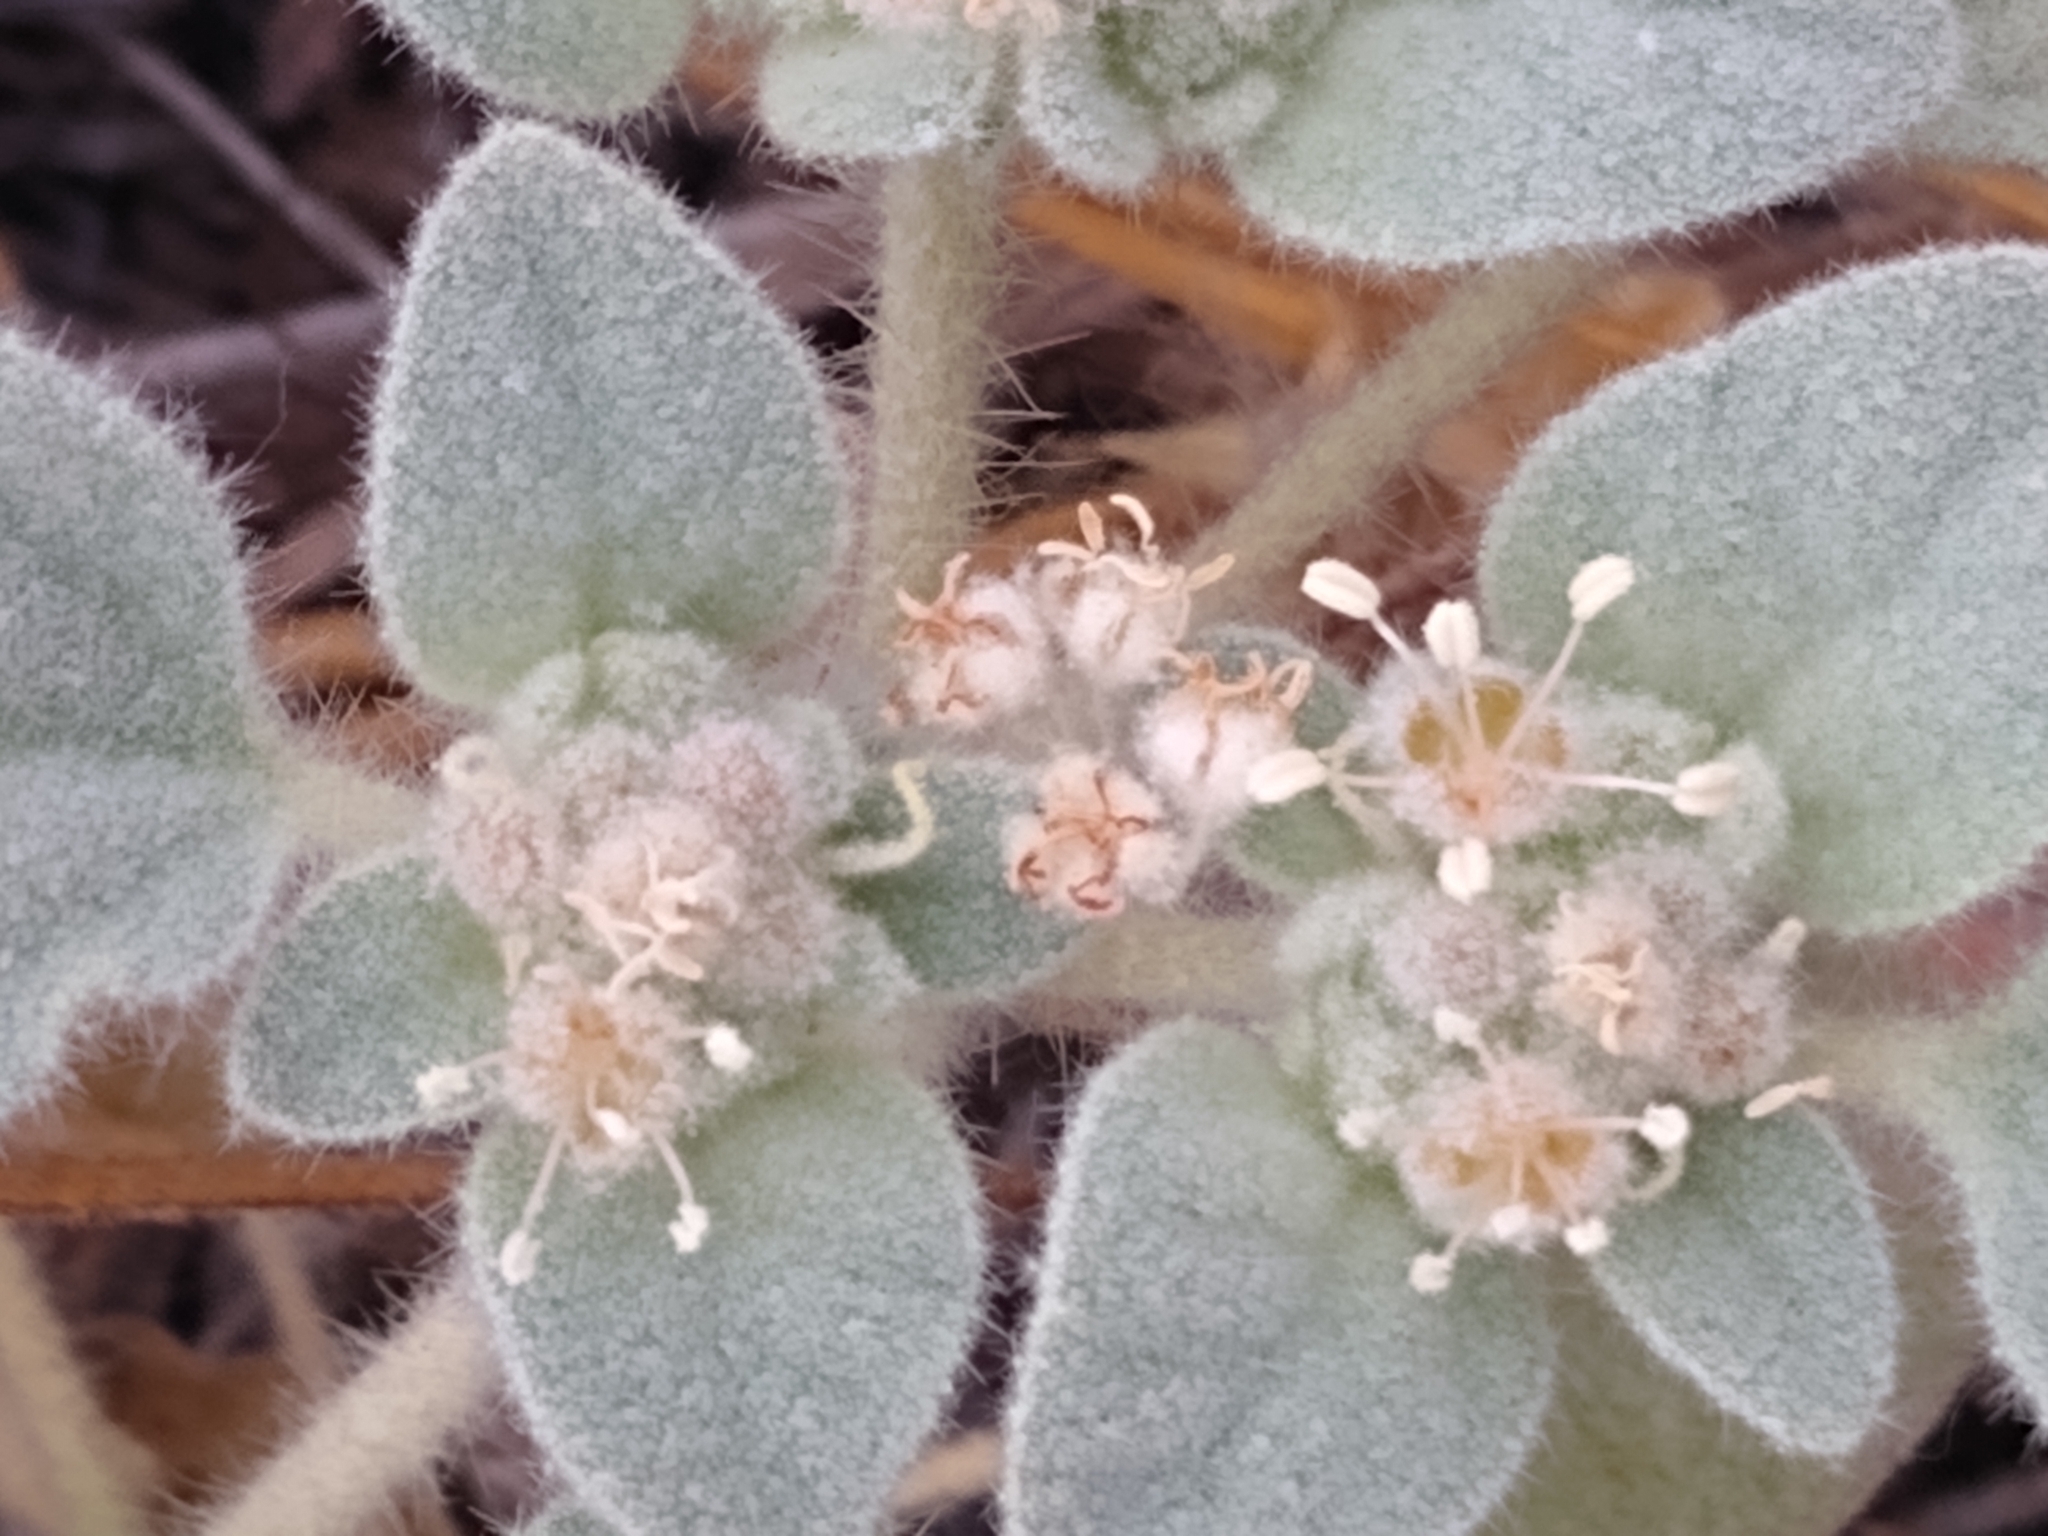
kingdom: Plantae
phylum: Tracheophyta
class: Magnoliopsida
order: Malpighiales
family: Euphorbiaceae
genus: Croton
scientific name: Croton setiger
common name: Dove weed
